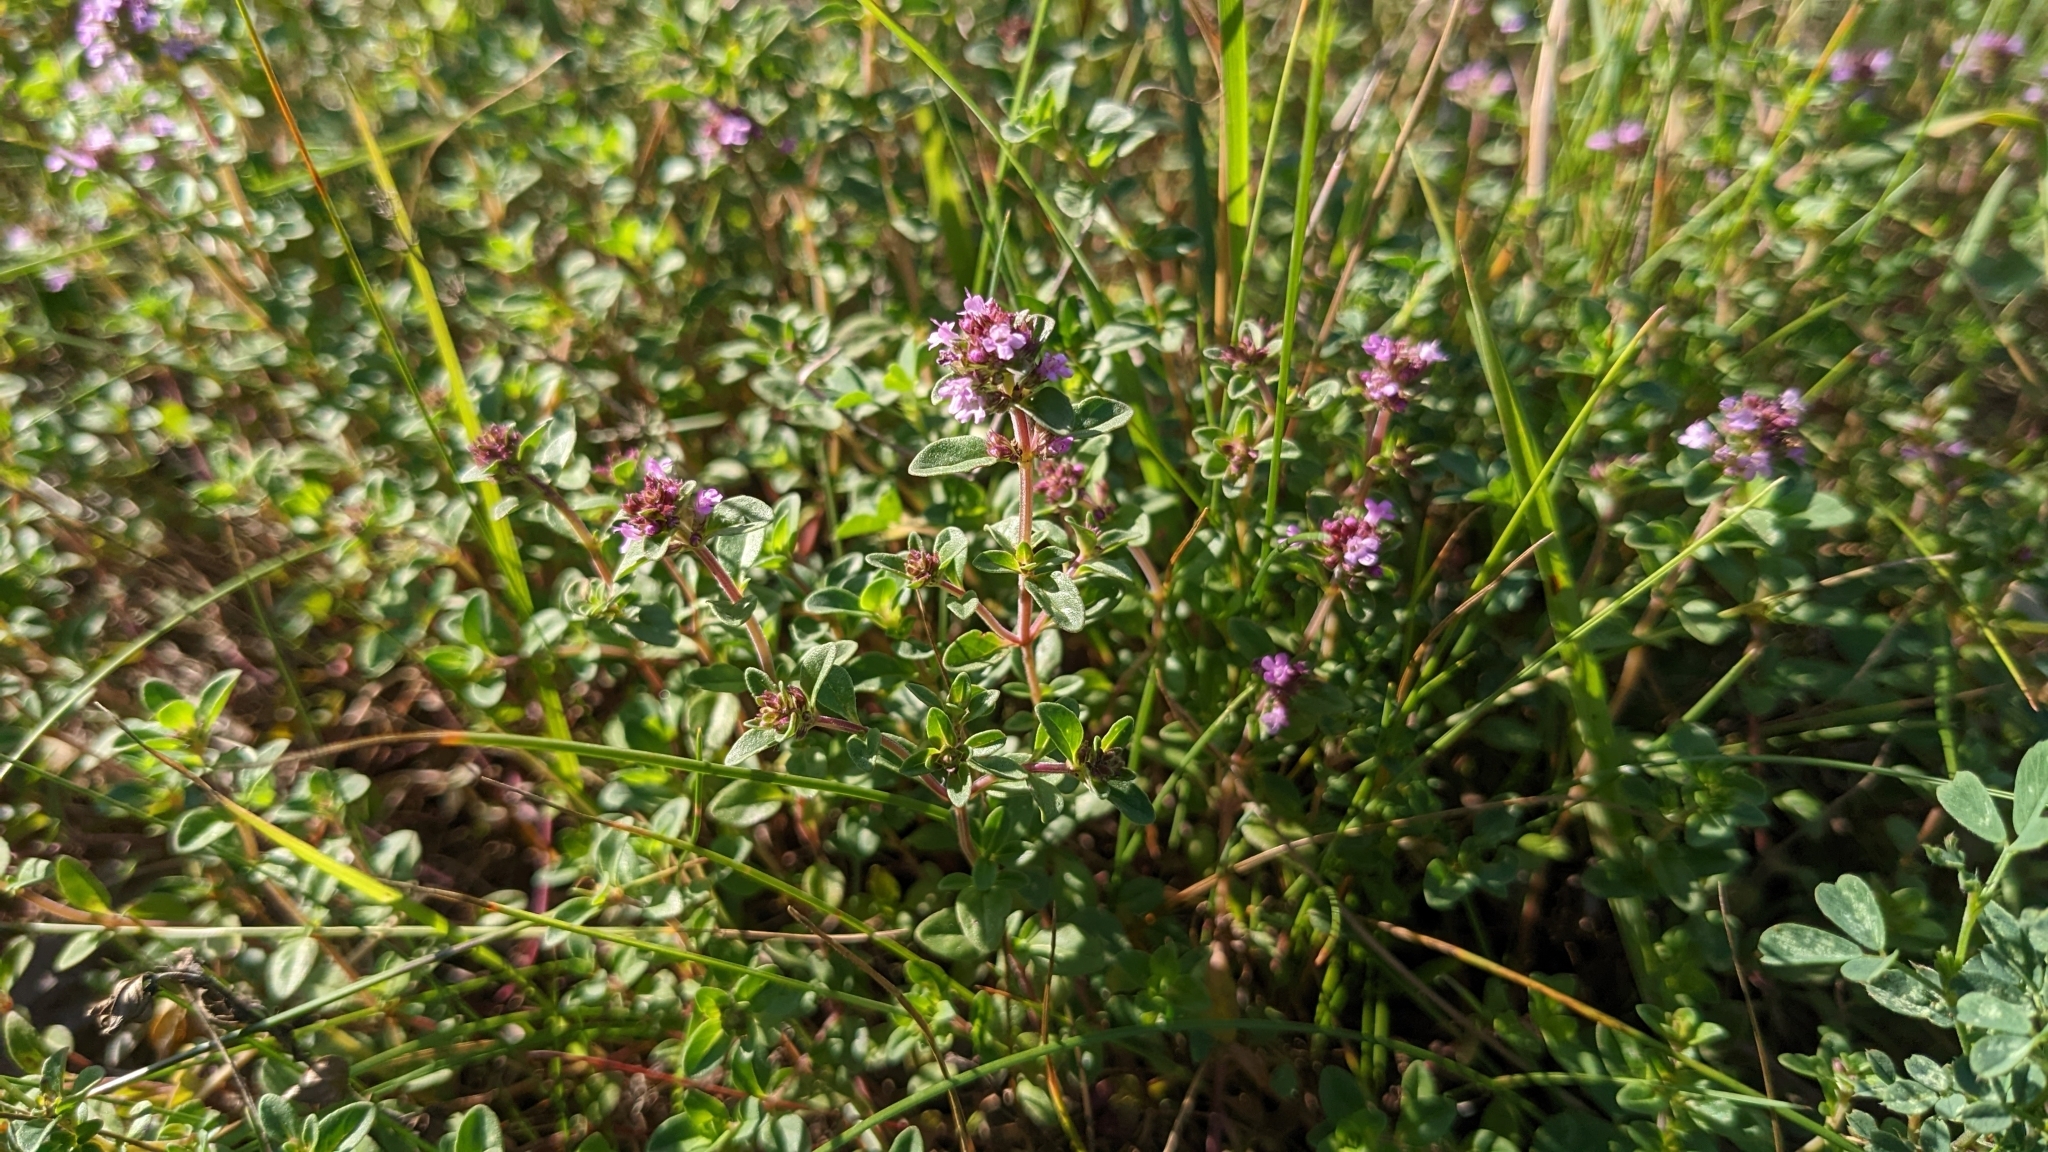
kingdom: Plantae
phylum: Tracheophyta
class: Magnoliopsida
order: Lamiales
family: Lamiaceae
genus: Thymus
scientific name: Thymus pulegioides
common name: Large thyme
